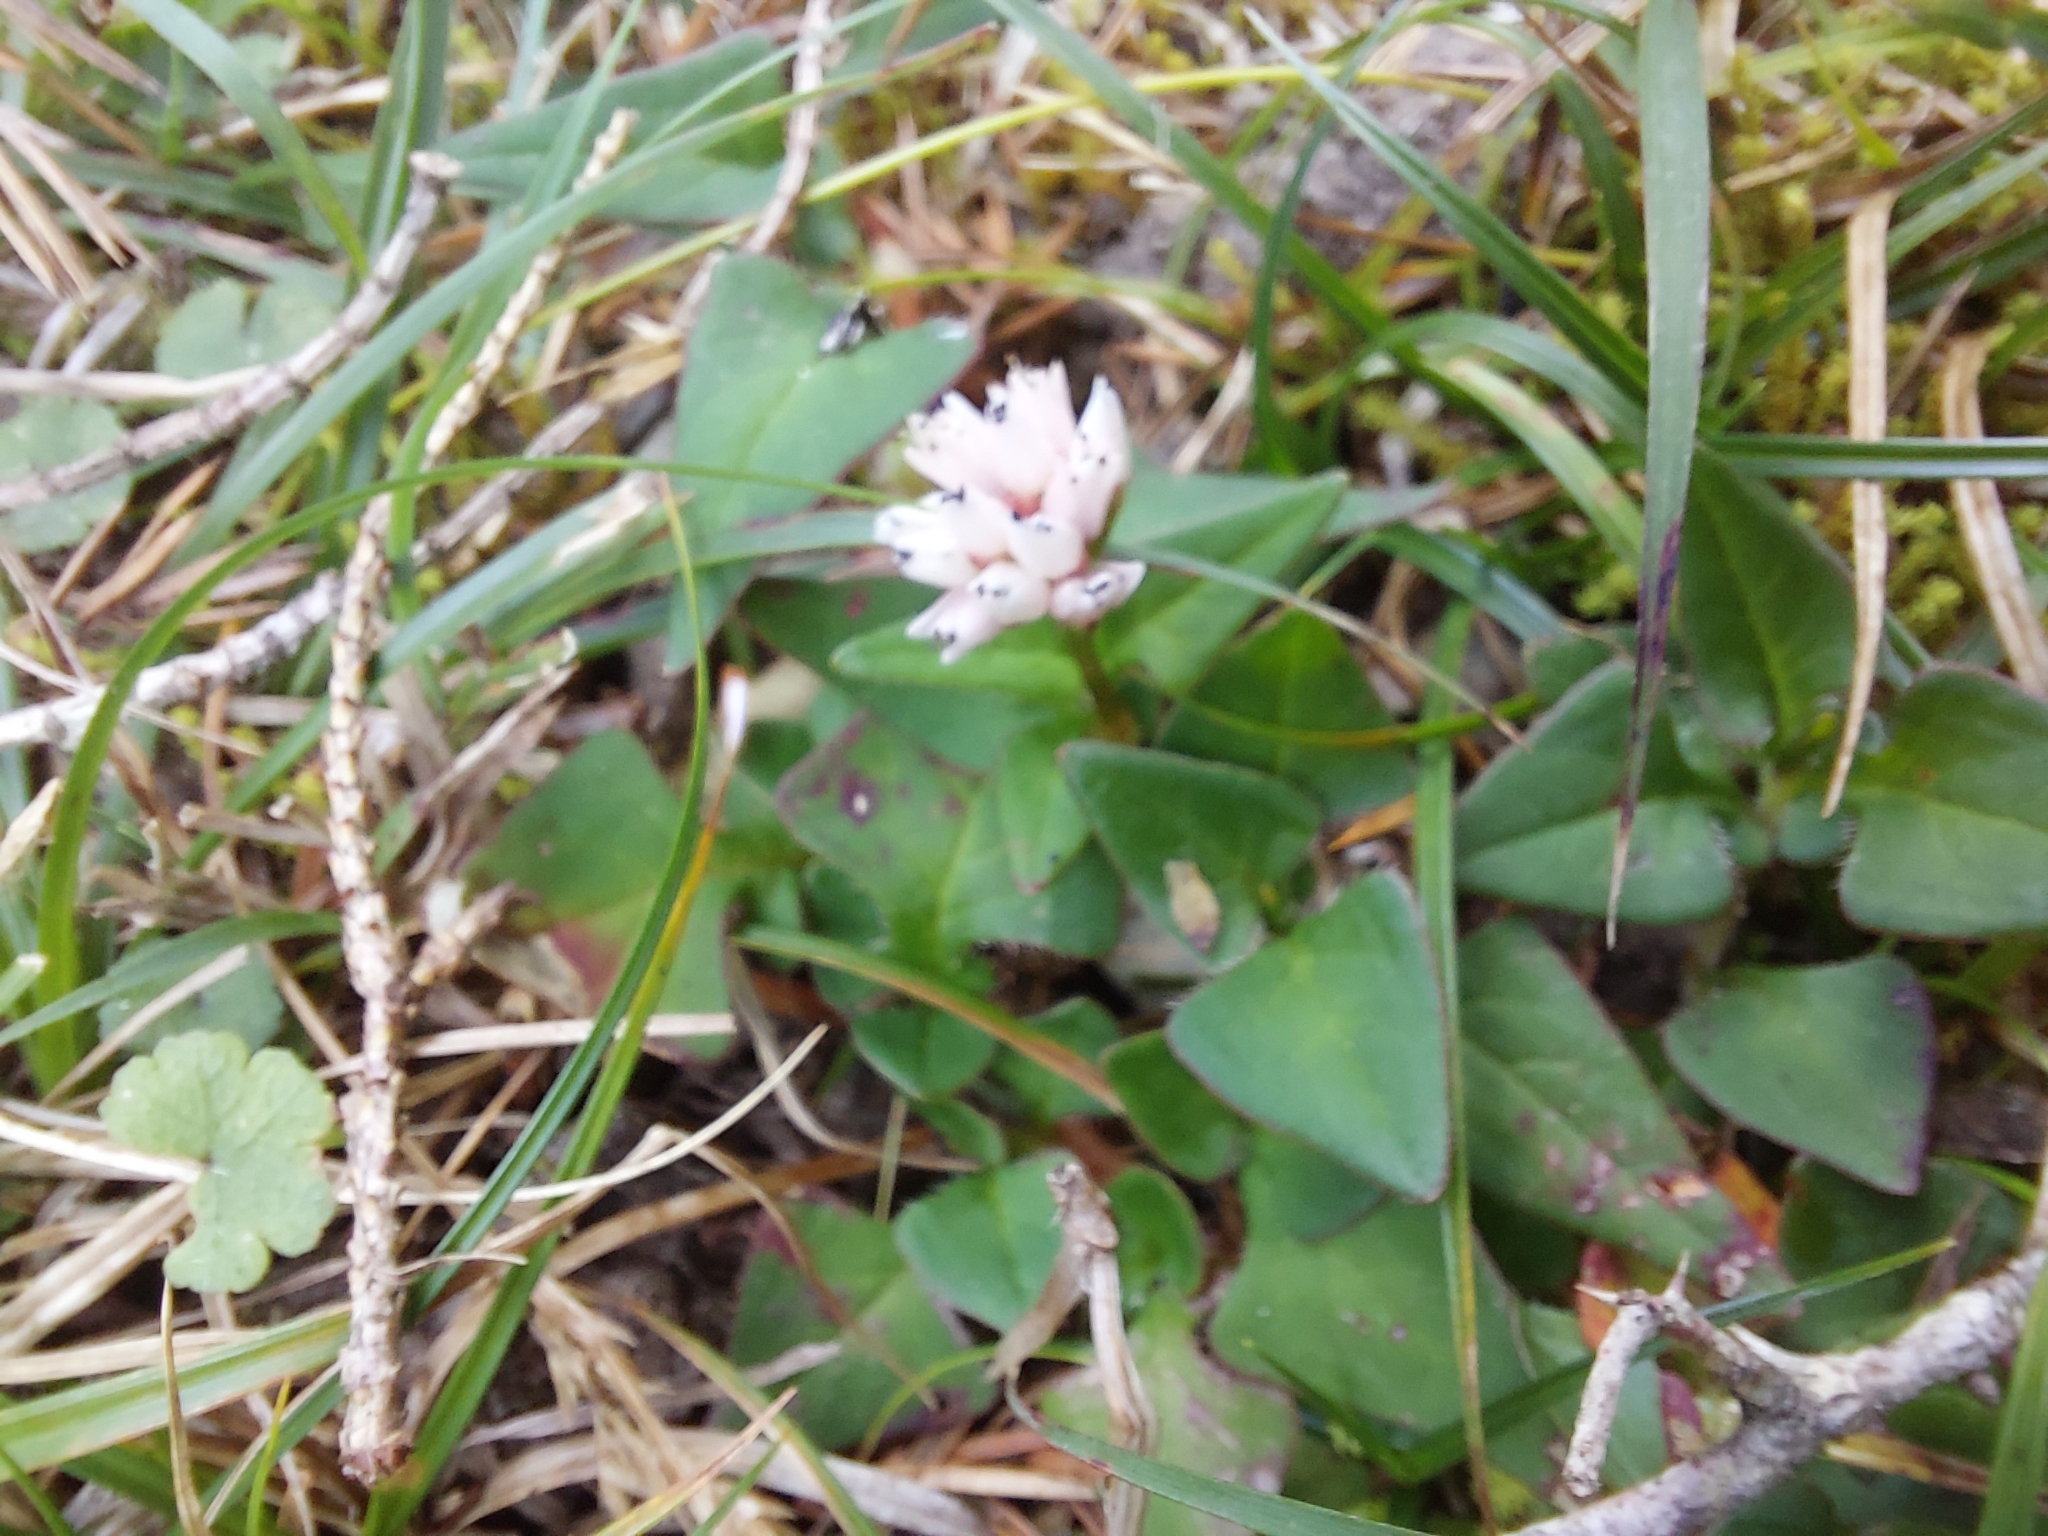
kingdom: Plantae
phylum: Tracheophyta
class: Magnoliopsida
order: Caryophyllales
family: Polygonaceae
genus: Persicaria
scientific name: Persicaria runcinata
